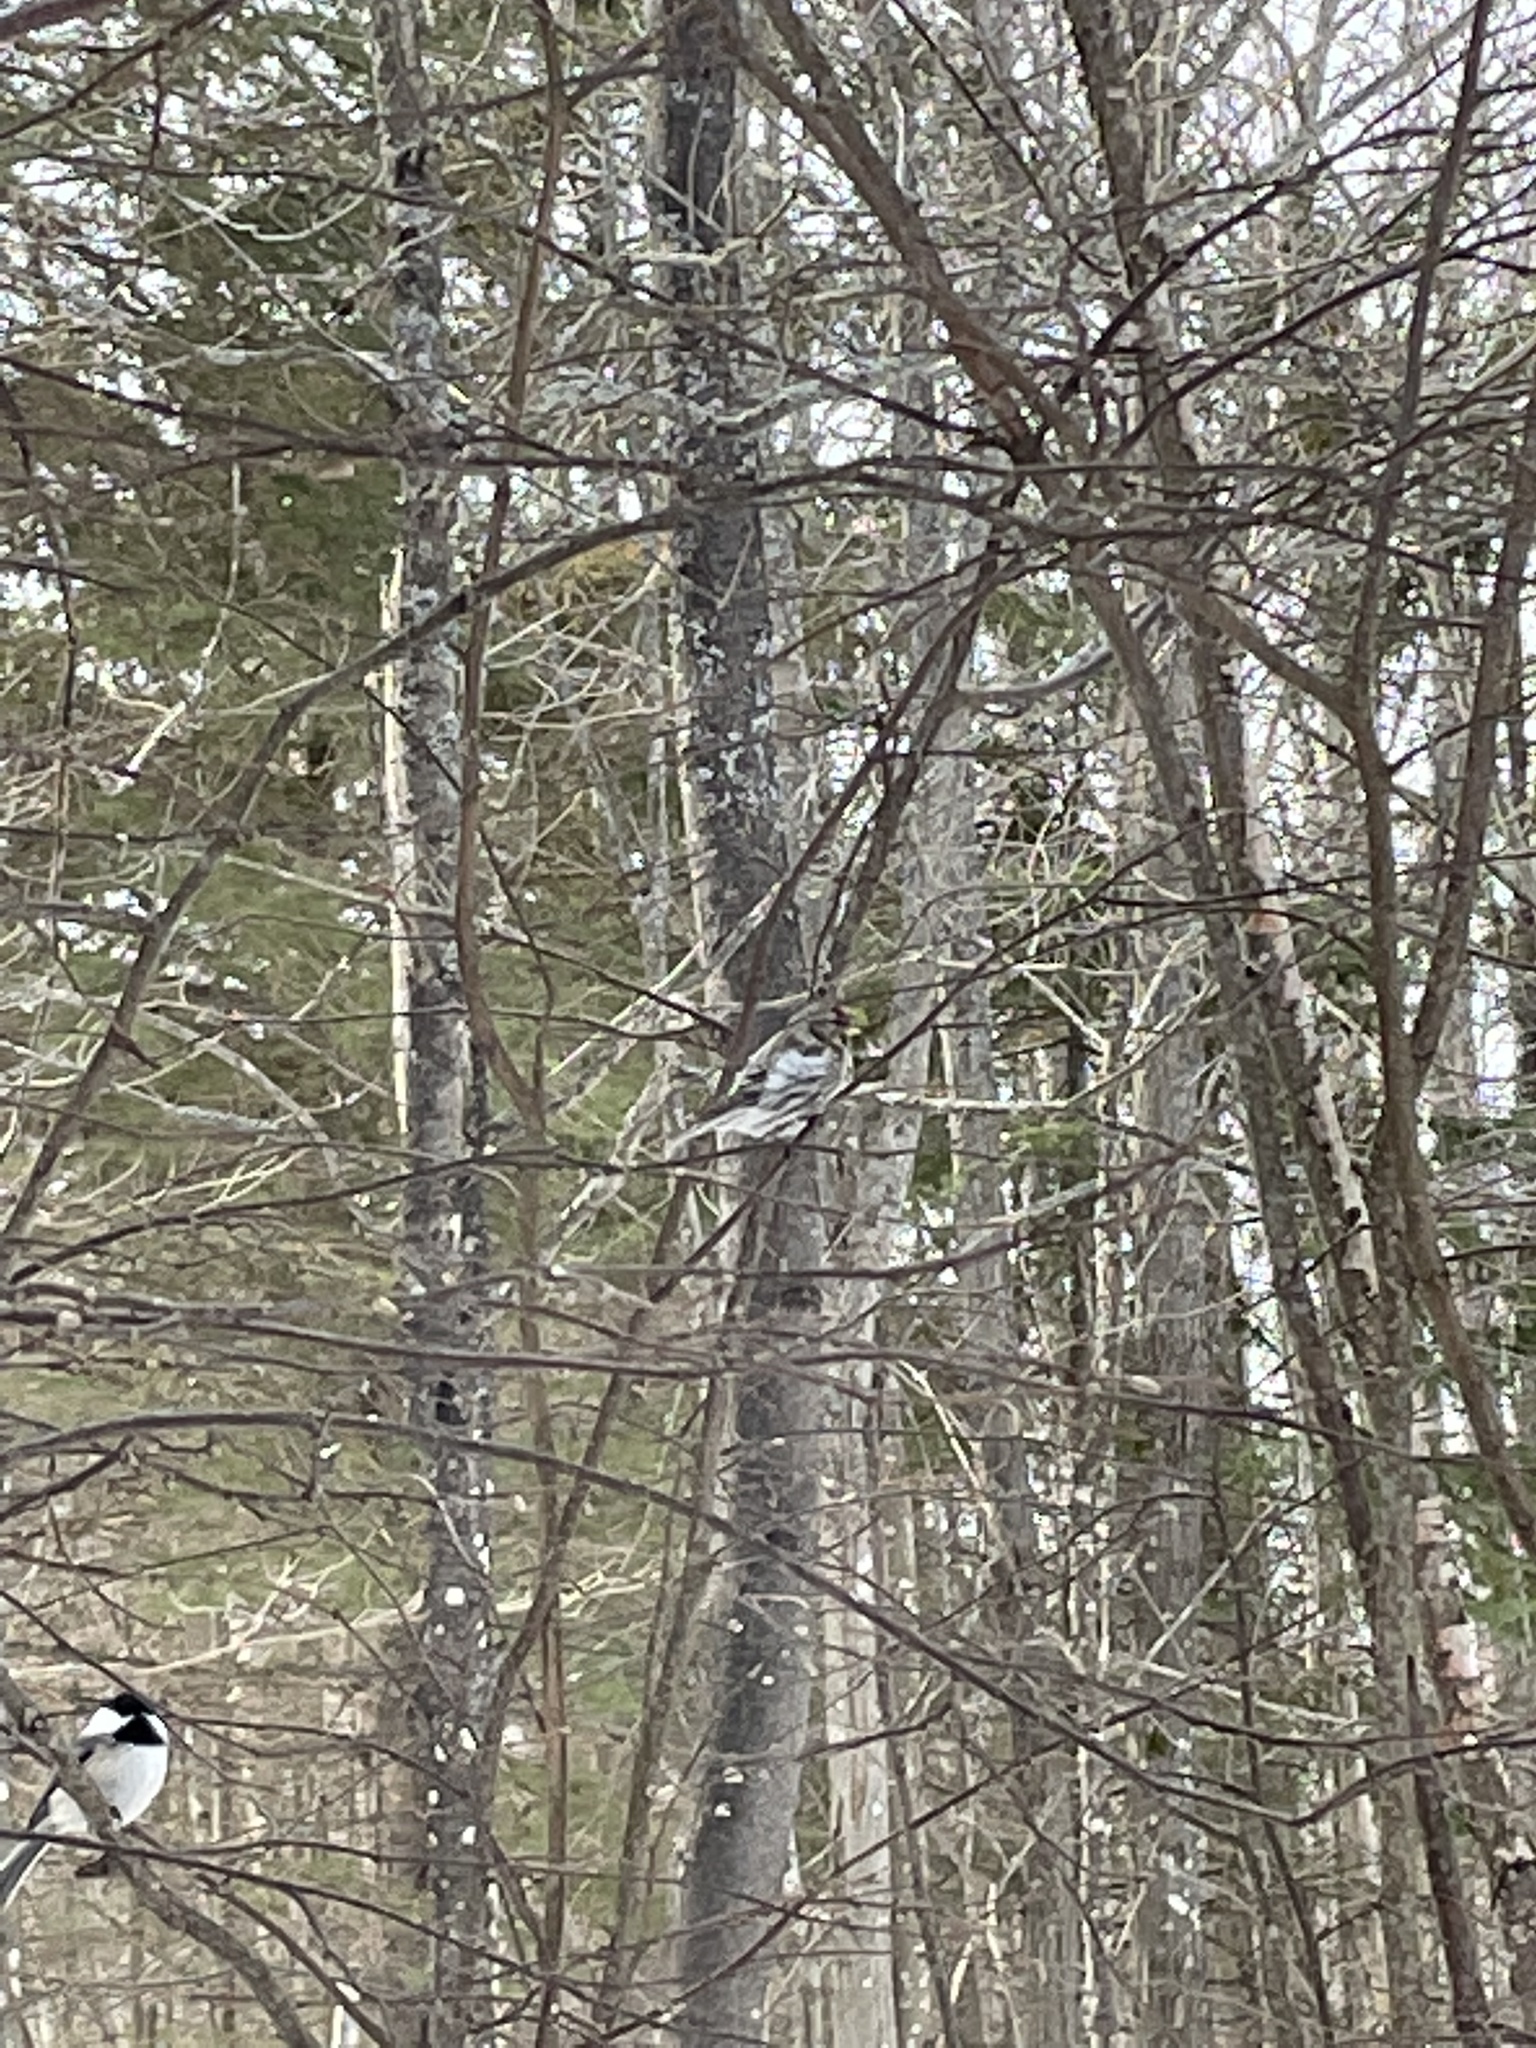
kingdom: Animalia
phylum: Chordata
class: Aves
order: Passeriformes
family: Fringillidae
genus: Acanthis
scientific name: Acanthis flammea
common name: Common redpoll
